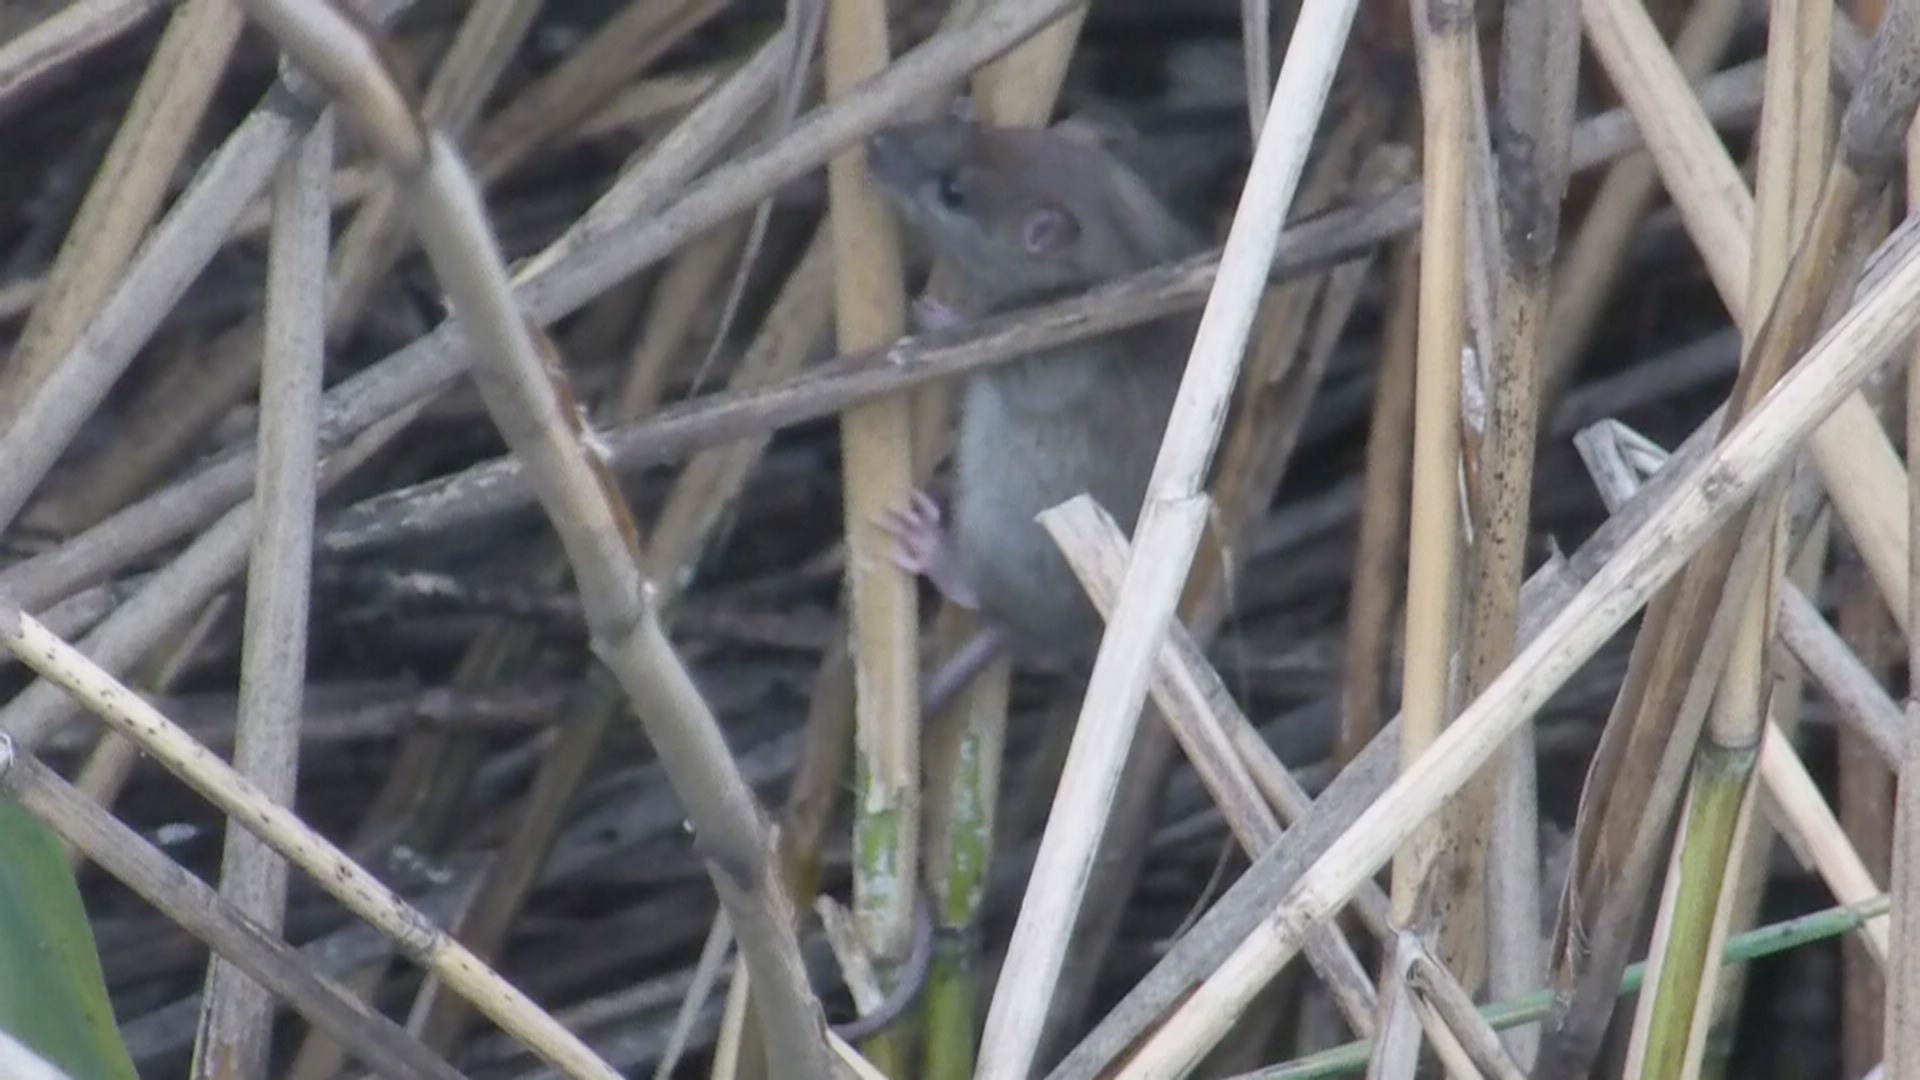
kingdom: Animalia
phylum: Chordata
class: Mammalia
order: Rodentia
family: Muridae
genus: Mus
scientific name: Mus musculus
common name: House mouse
